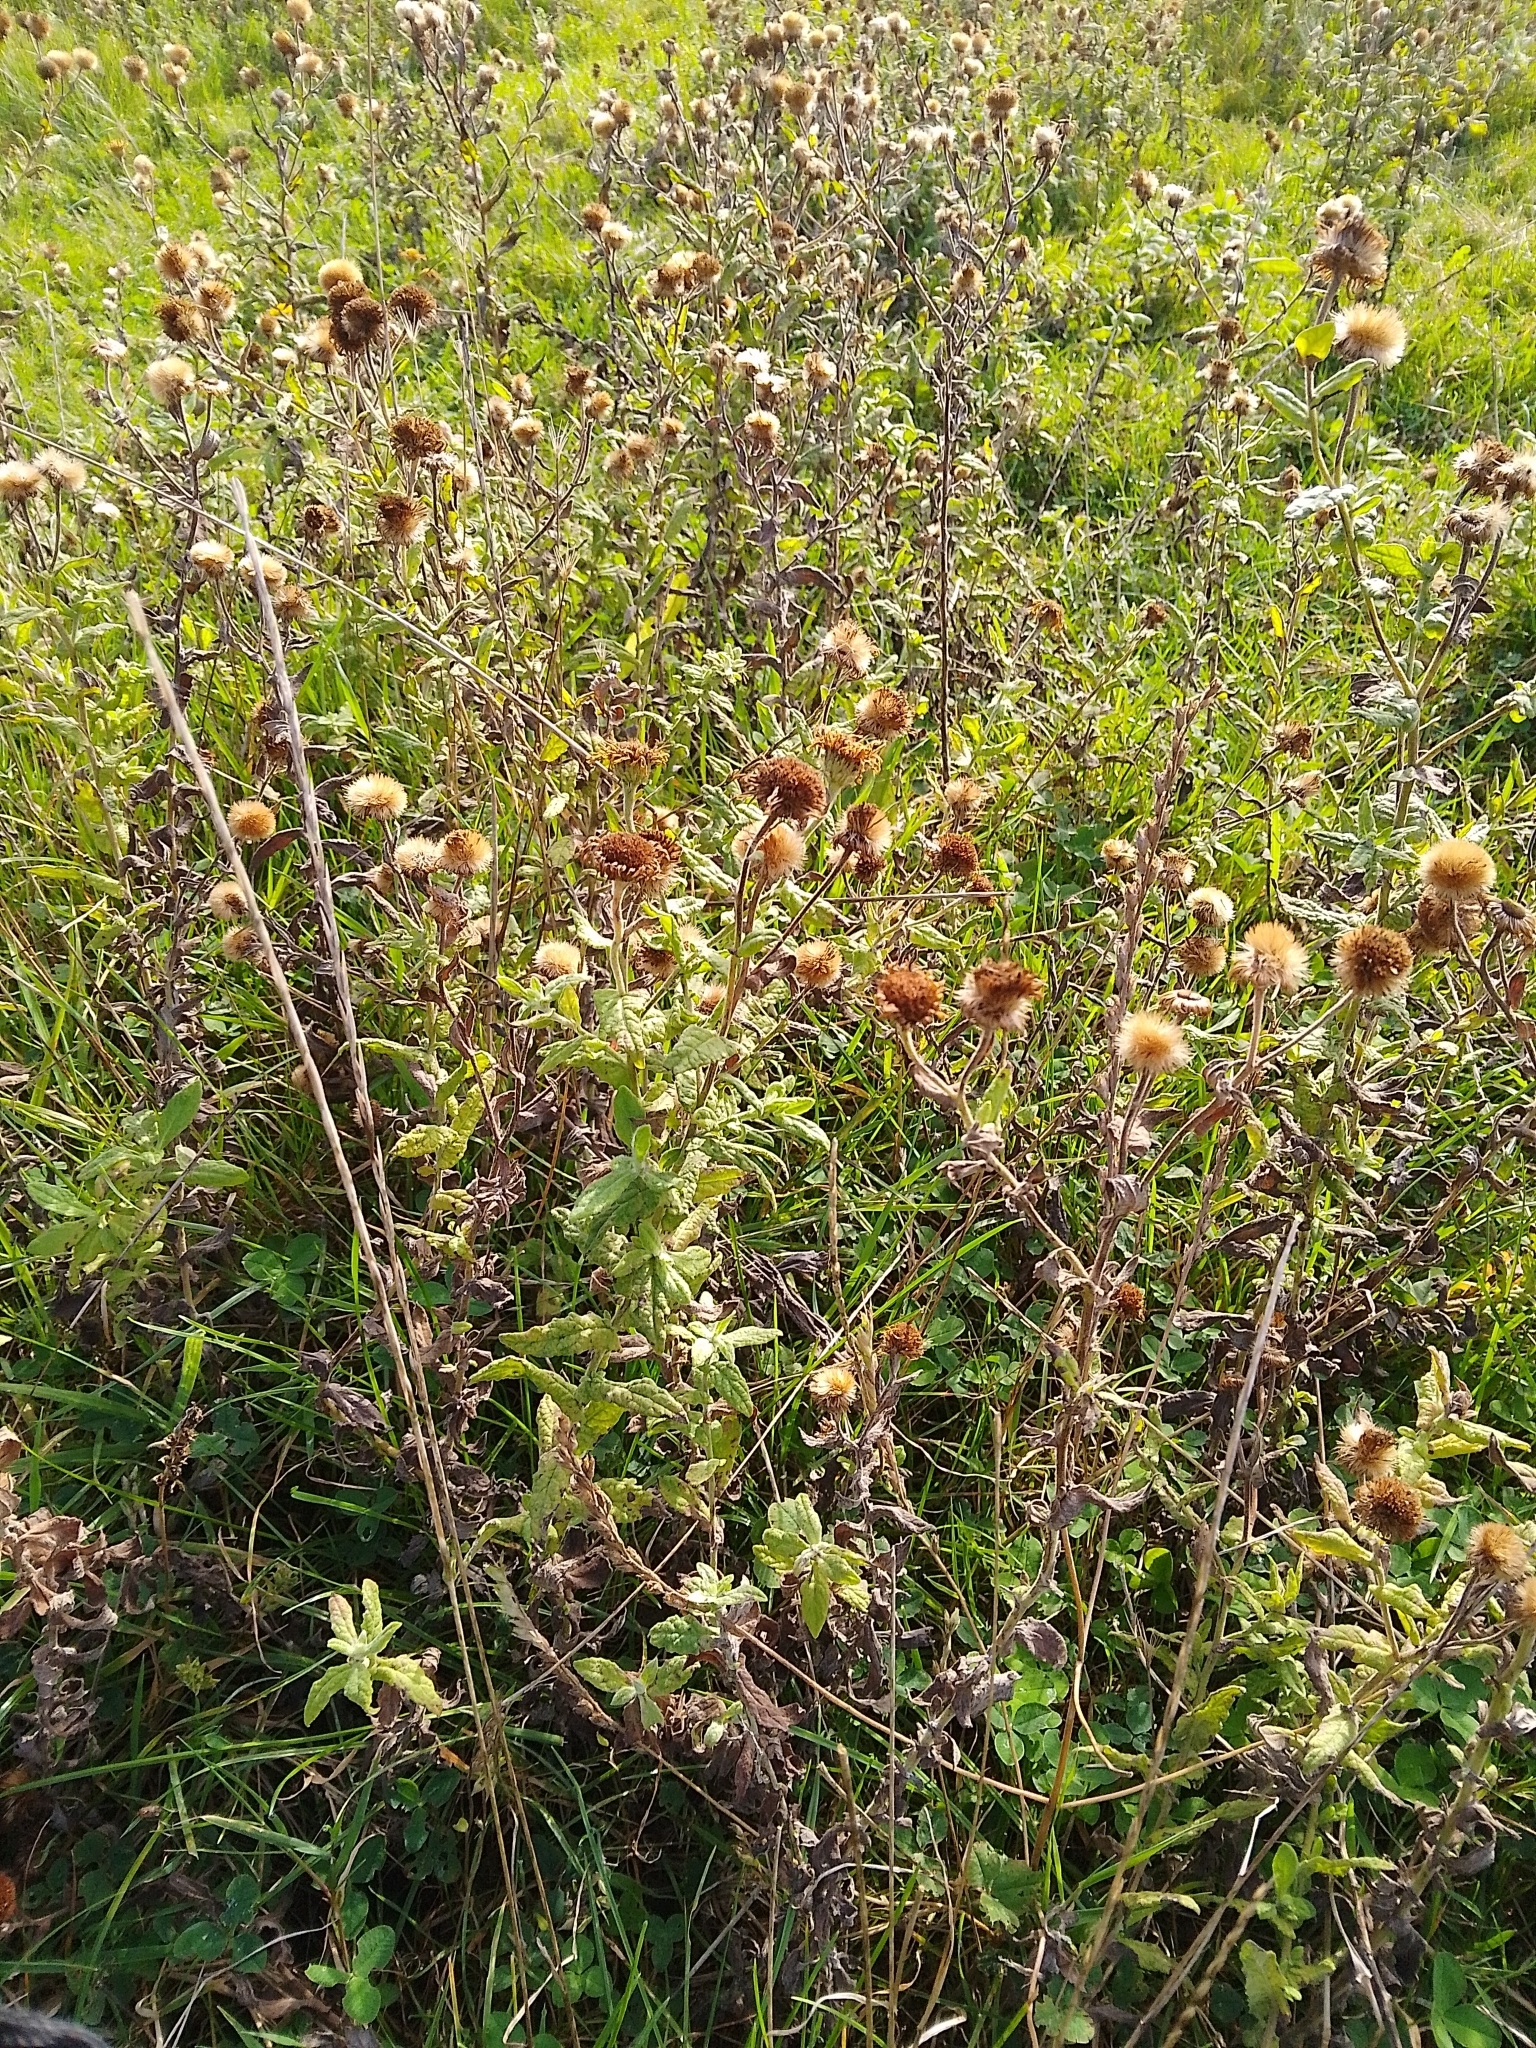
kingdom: Plantae
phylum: Tracheophyta
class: Magnoliopsida
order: Asterales
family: Asteraceae
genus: Pulicaria
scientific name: Pulicaria dysenterica
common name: Common fleabane
